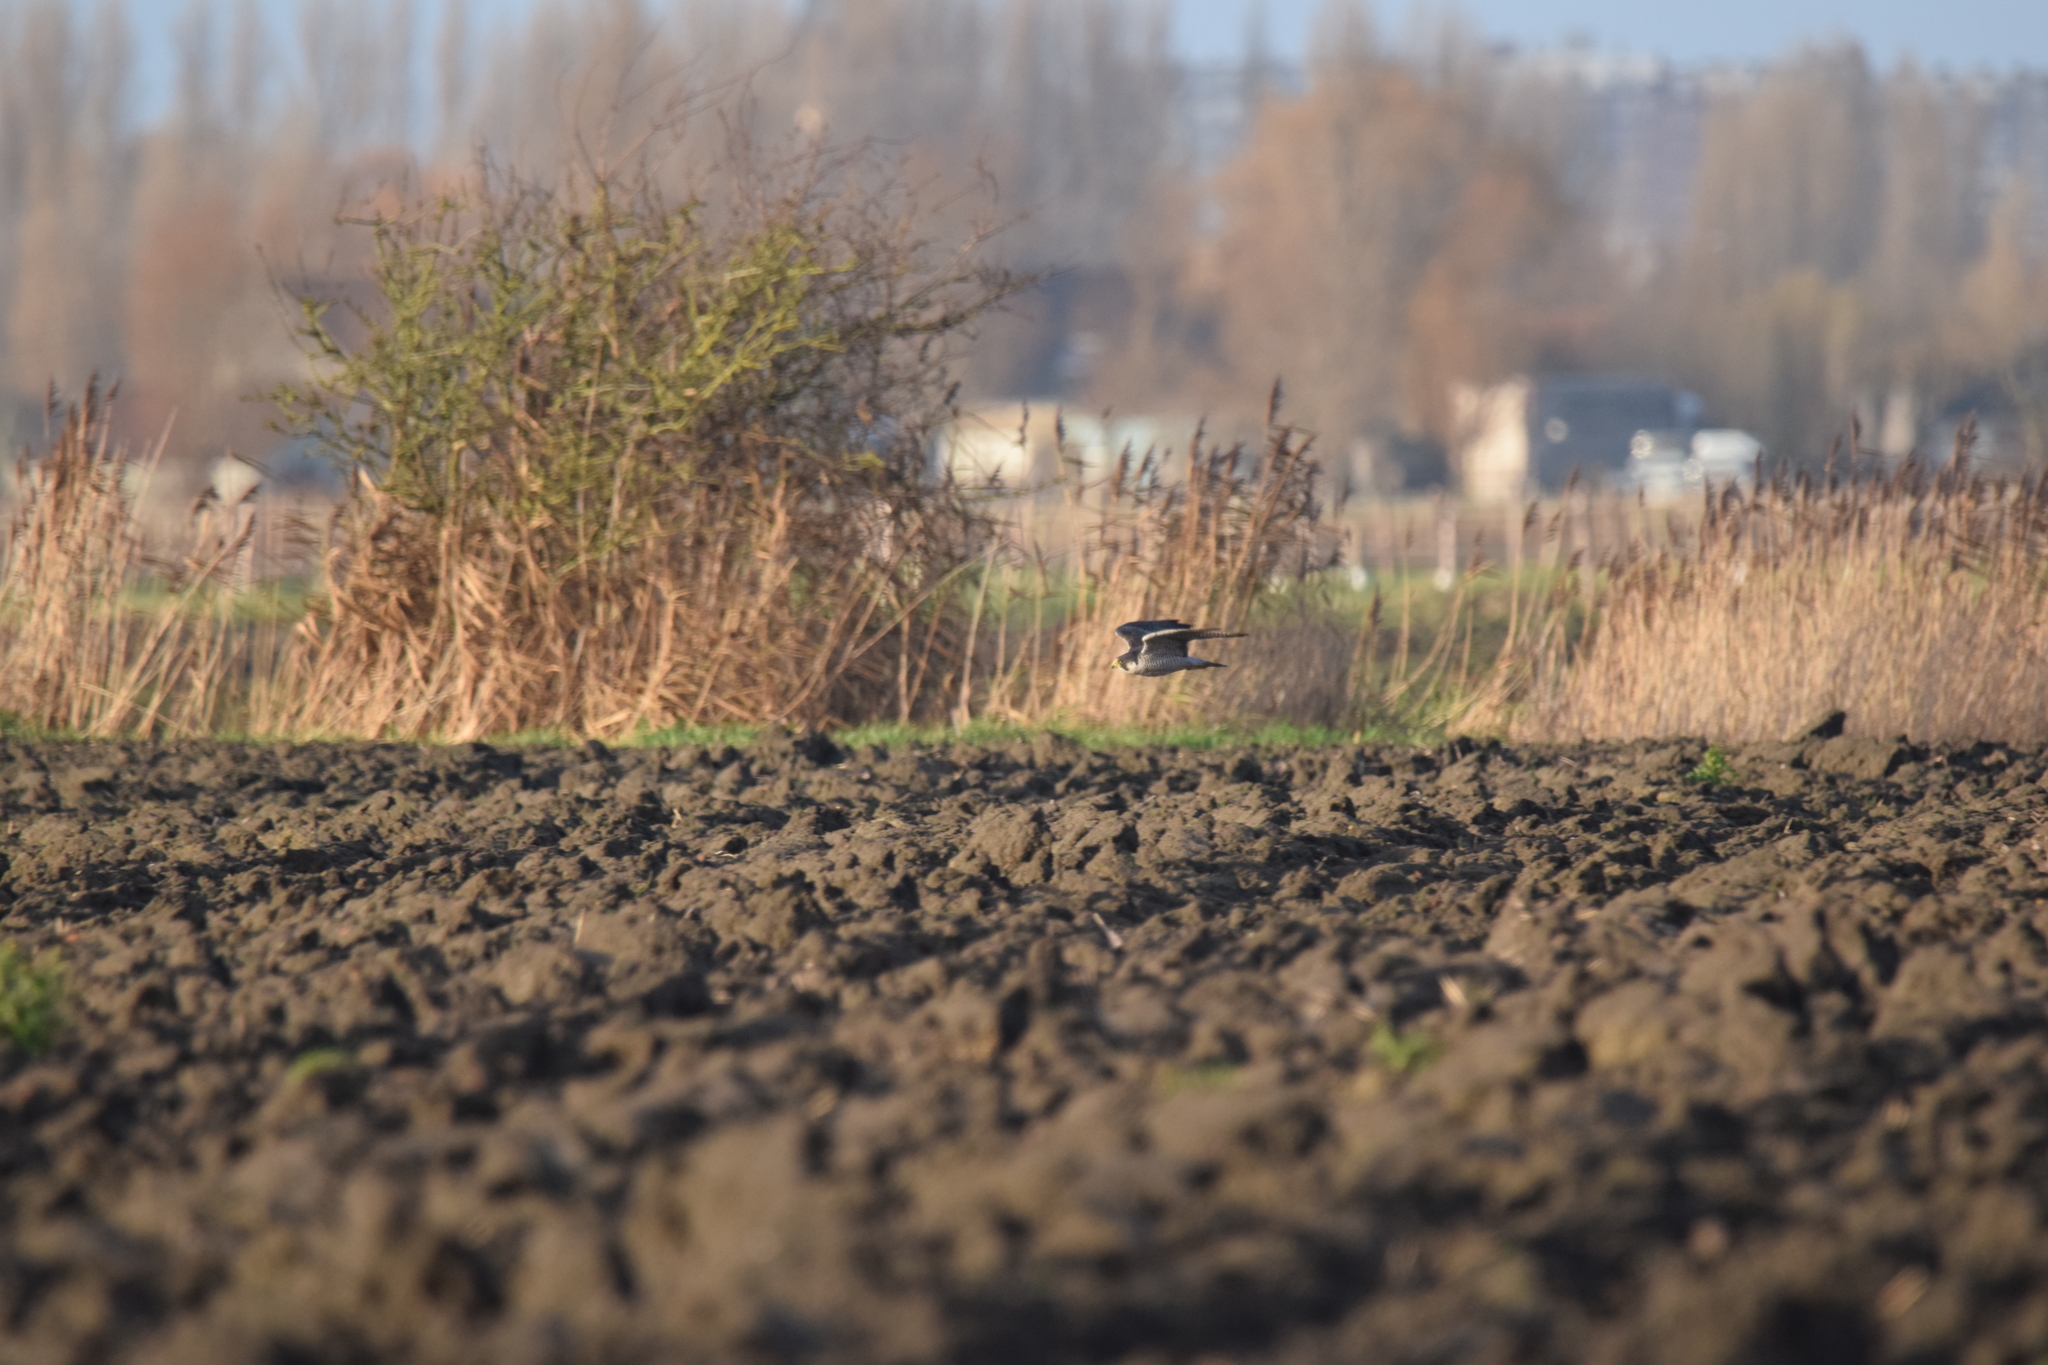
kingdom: Animalia
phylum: Chordata
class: Aves
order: Falconiformes
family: Falconidae
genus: Falco
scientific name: Falco peregrinus
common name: Peregrine falcon
